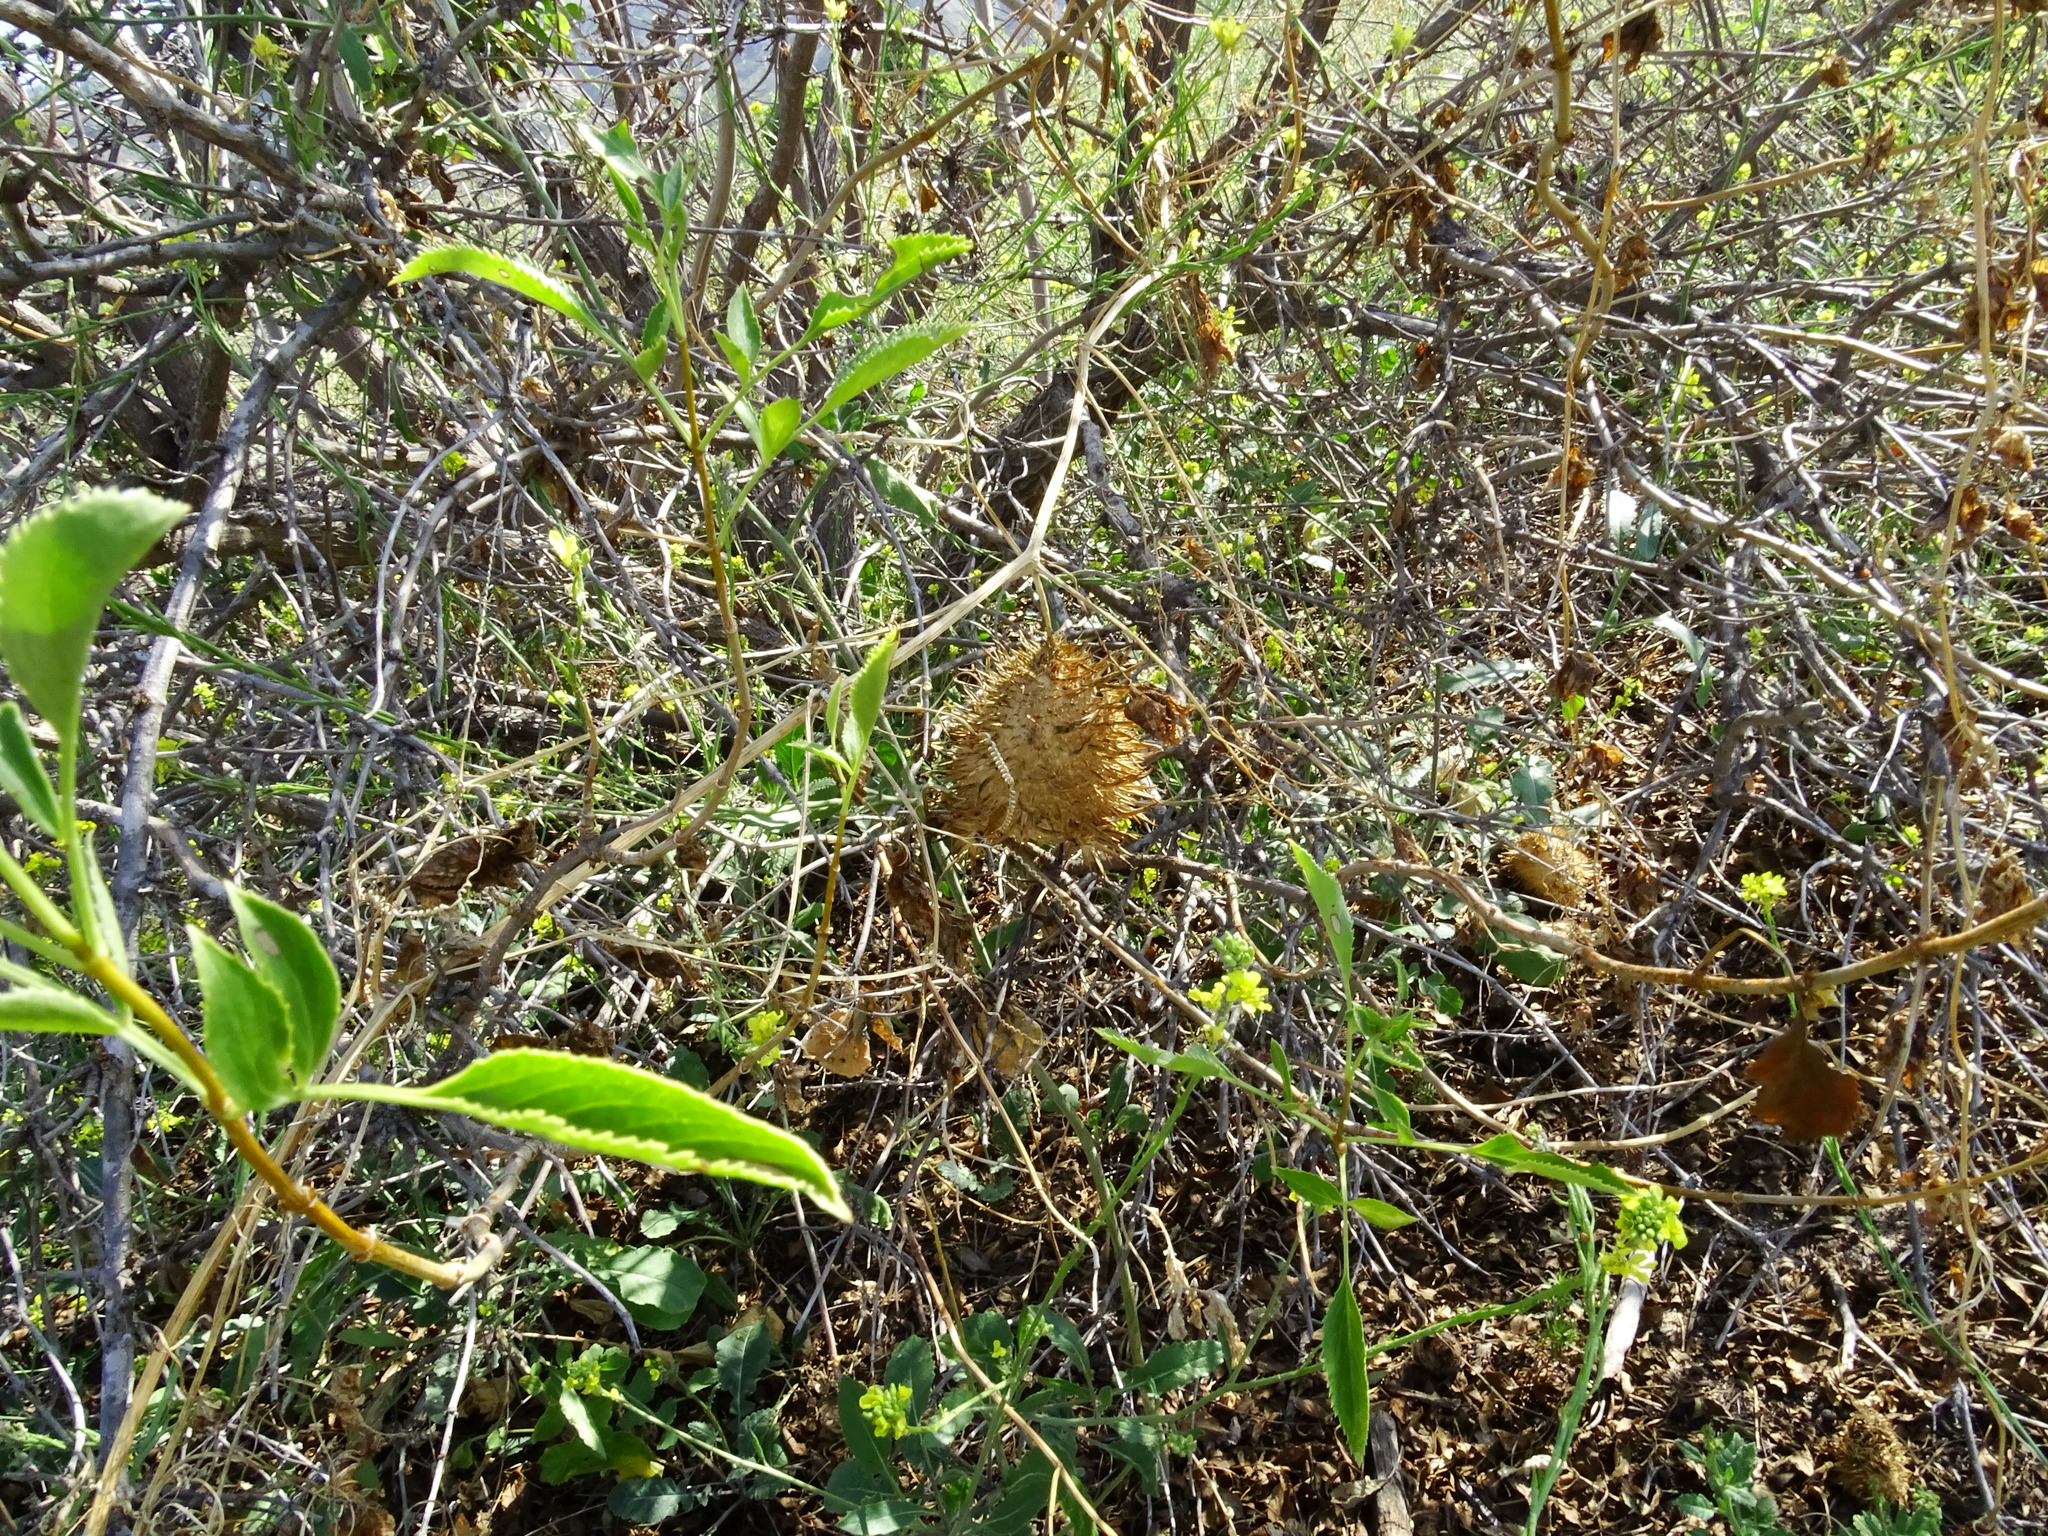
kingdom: Plantae
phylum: Tracheophyta
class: Magnoliopsida
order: Cucurbitales
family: Cucurbitaceae
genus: Marah
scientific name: Marah macrocarpa
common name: Cucamonga manroot
